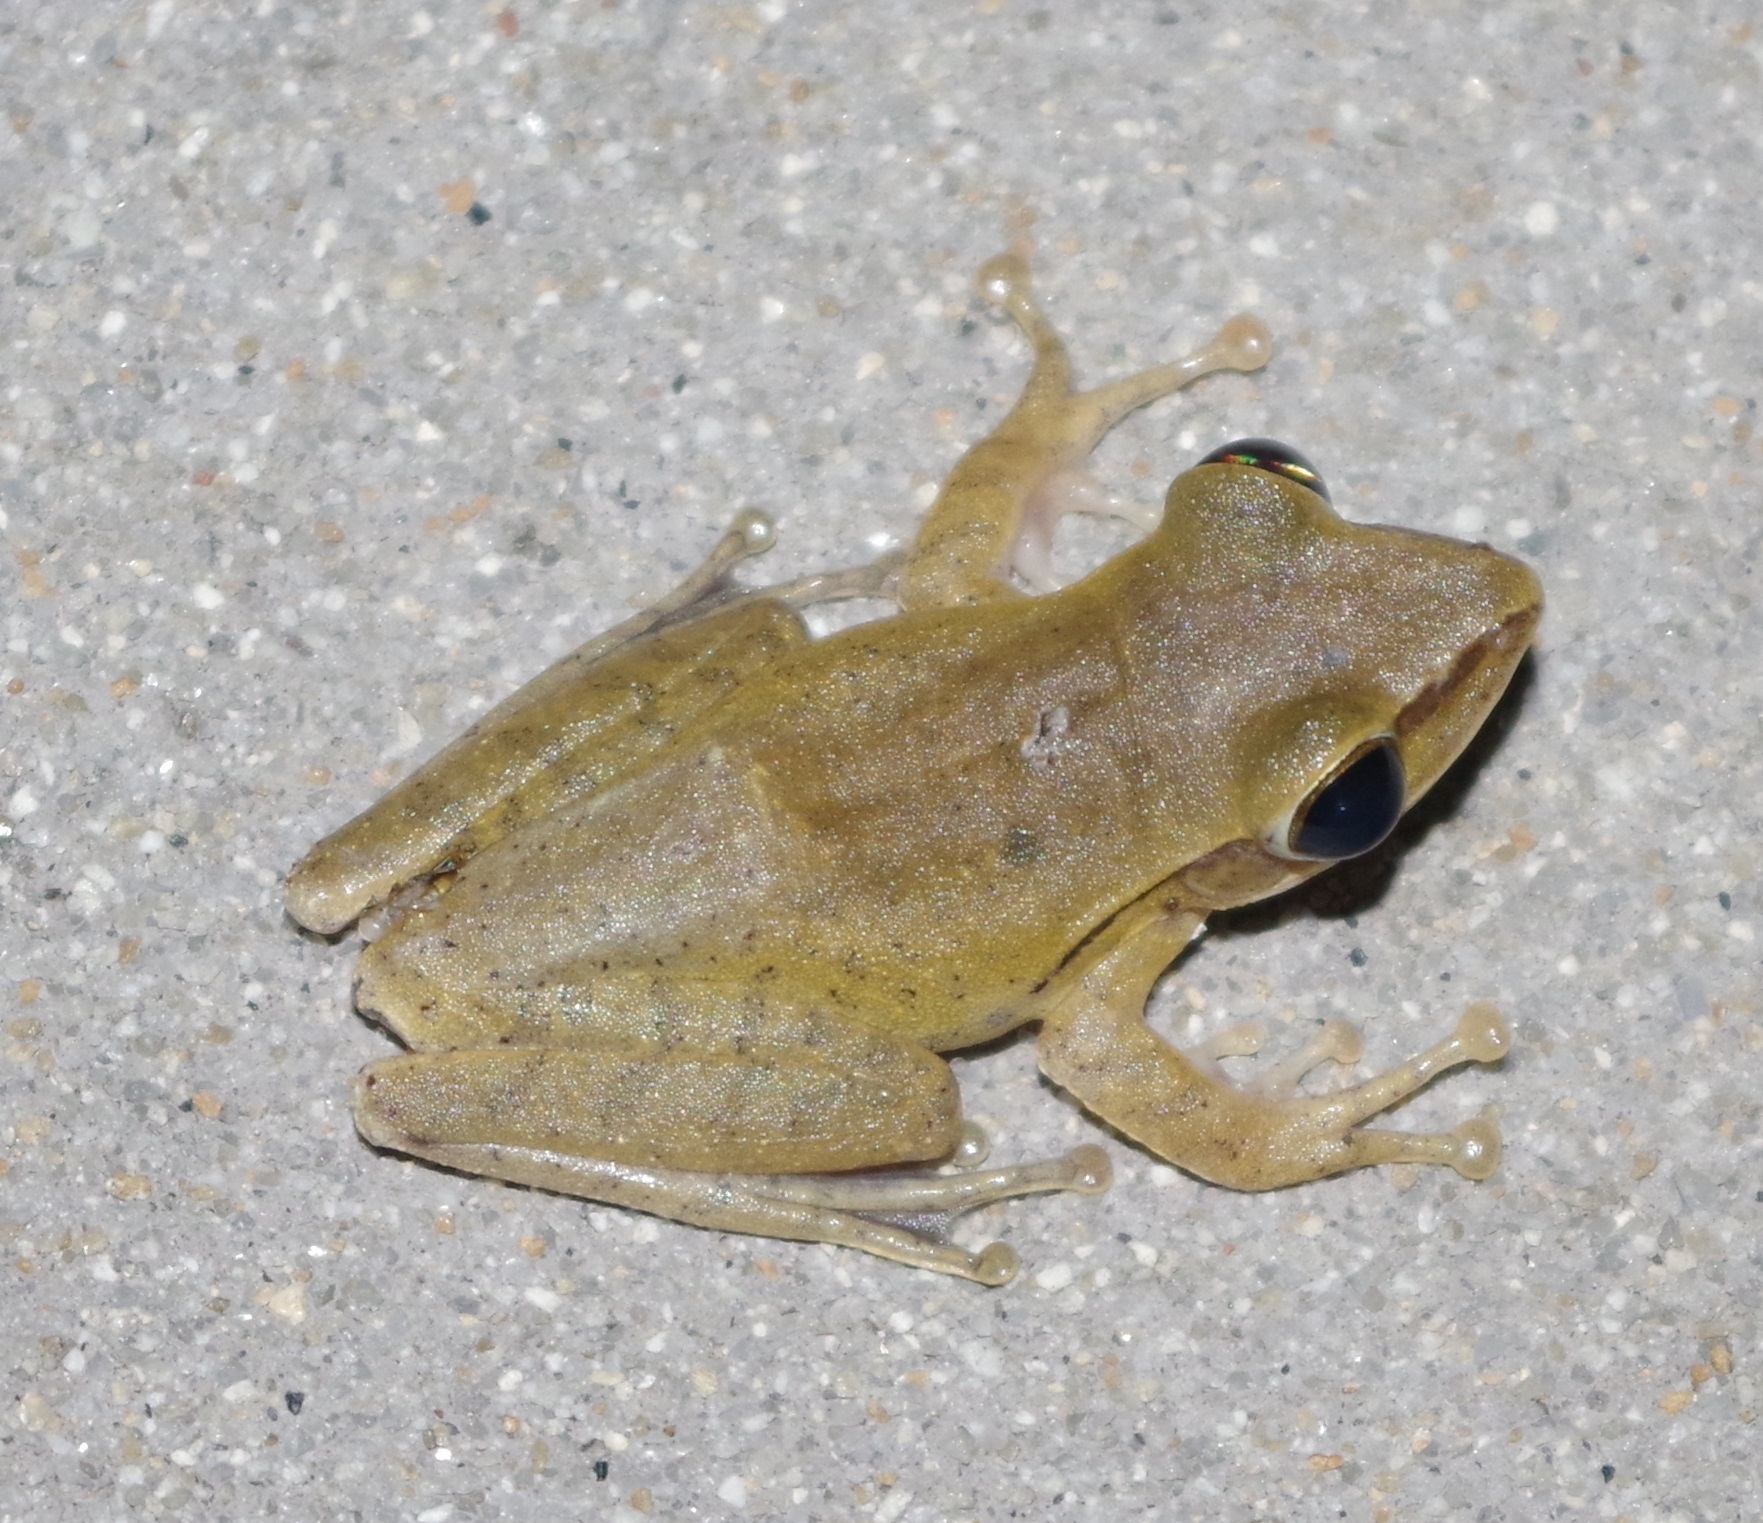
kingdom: Animalia
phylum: Chordata
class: Amphibia
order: Anura
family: Rhacophoridae
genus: Polypedates
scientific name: Polypedates leucomystax
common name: Common tree frog/four-lined tree frog
